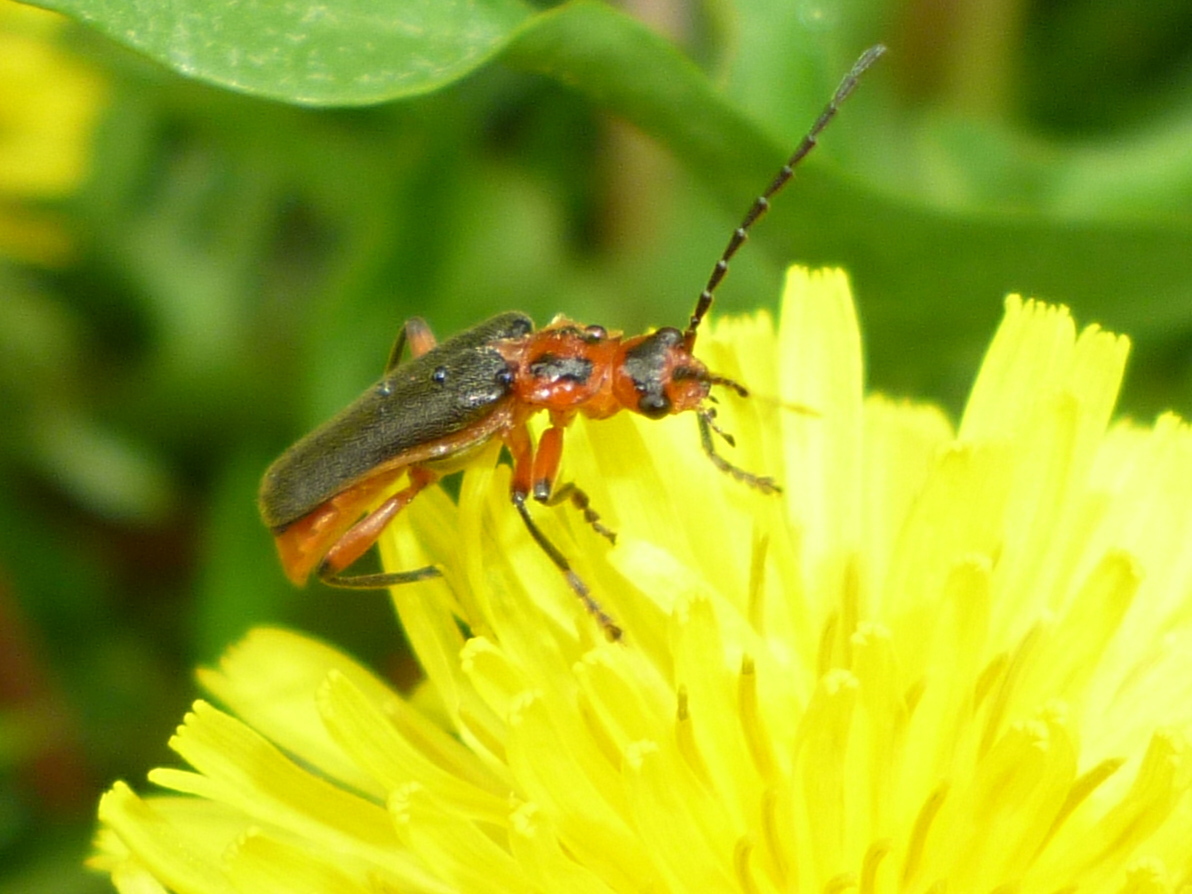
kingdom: Animalia
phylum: Arthropoda
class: Insecta
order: Coleoptera
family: Cantharidae
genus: Atalantycha
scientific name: Atalantycha bilineata
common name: Two-lined leatherwing
